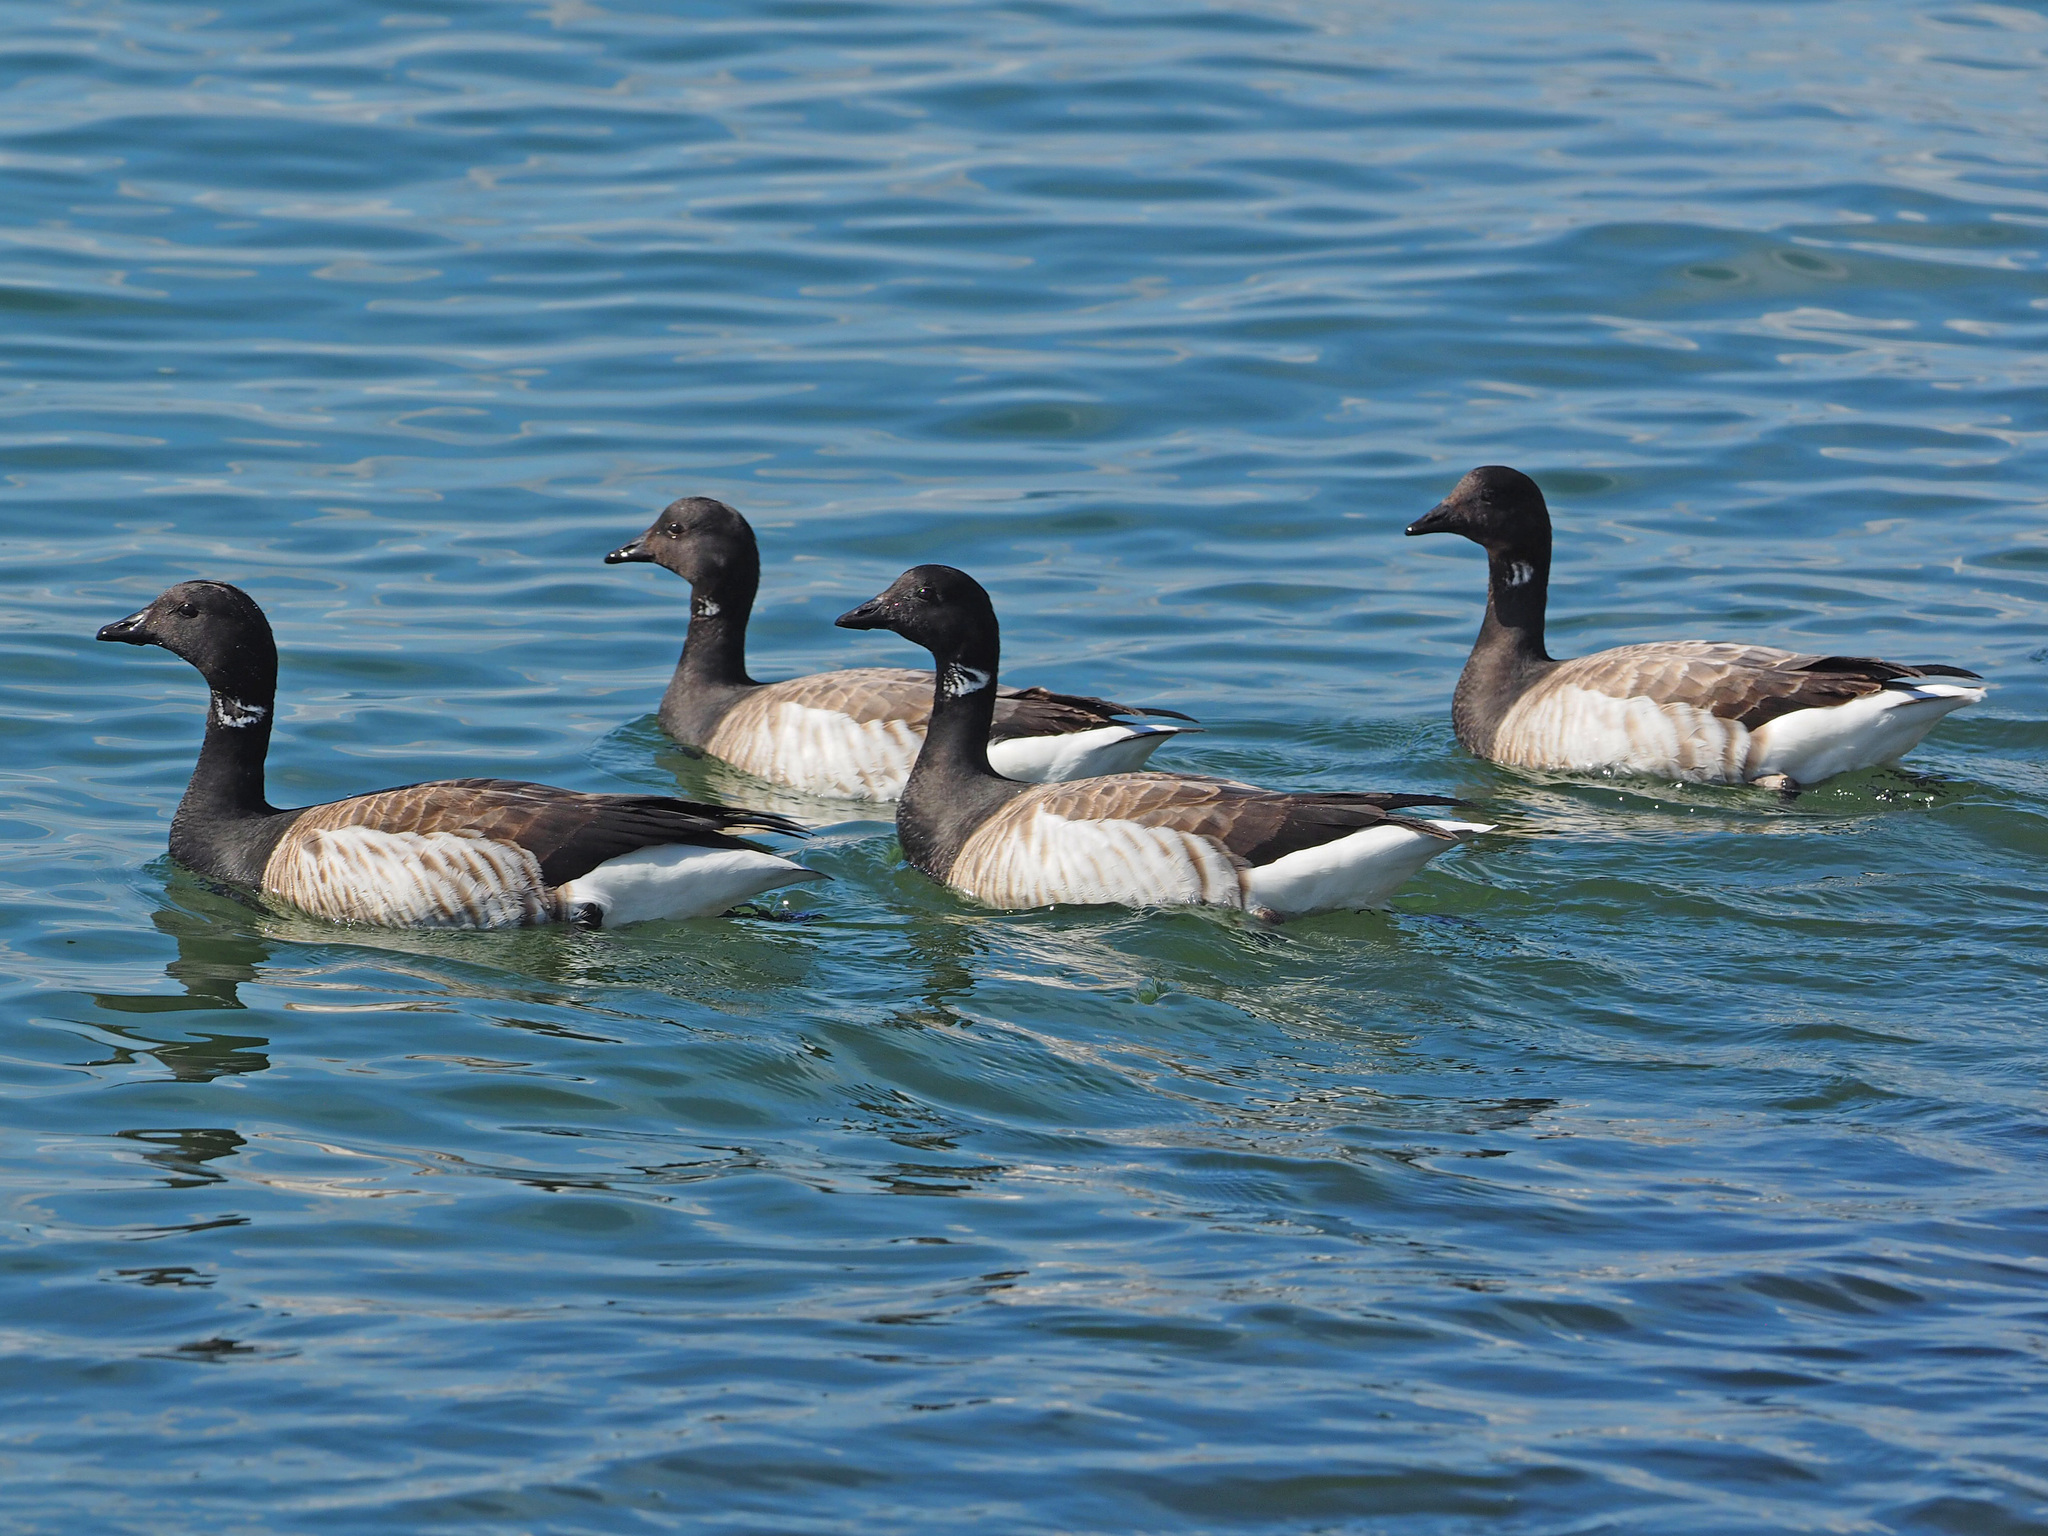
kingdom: Animalia
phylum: Chordata
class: Aves
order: Anseriformes
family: Anatidae
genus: Branta
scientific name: Branta bernicla
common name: Brant goose
